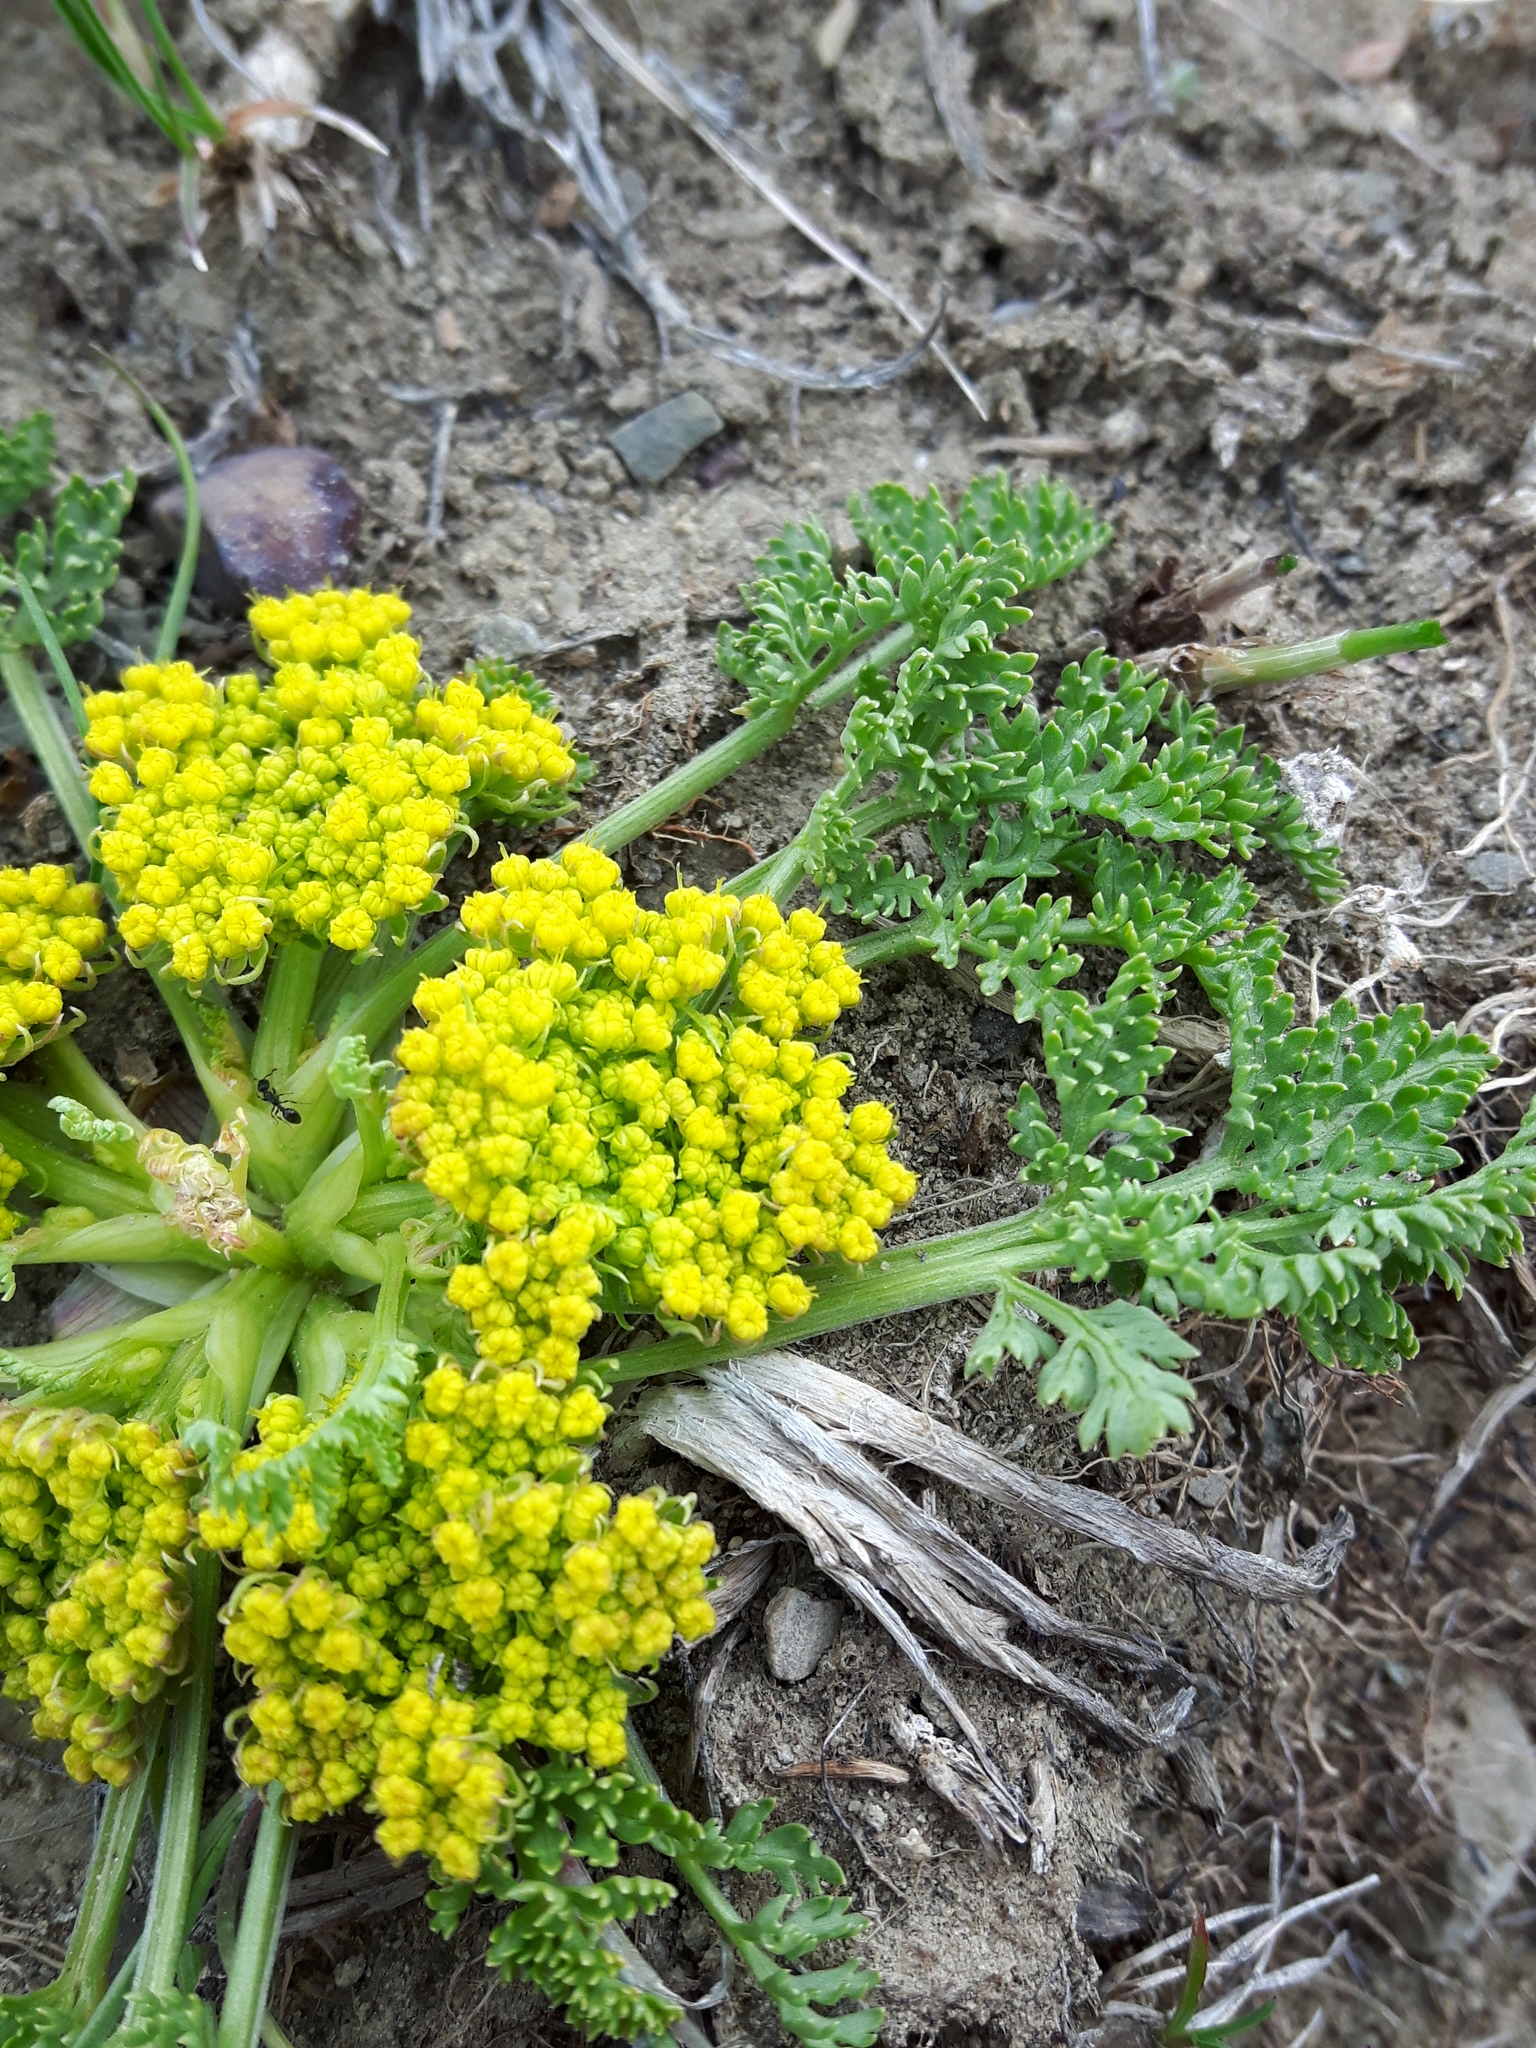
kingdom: Plantae
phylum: Tracheophyta
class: Magnoliopsida
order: Apiales
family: Apiaceae
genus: Musineon
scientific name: Musineon divaricatum
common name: Plains musineon
